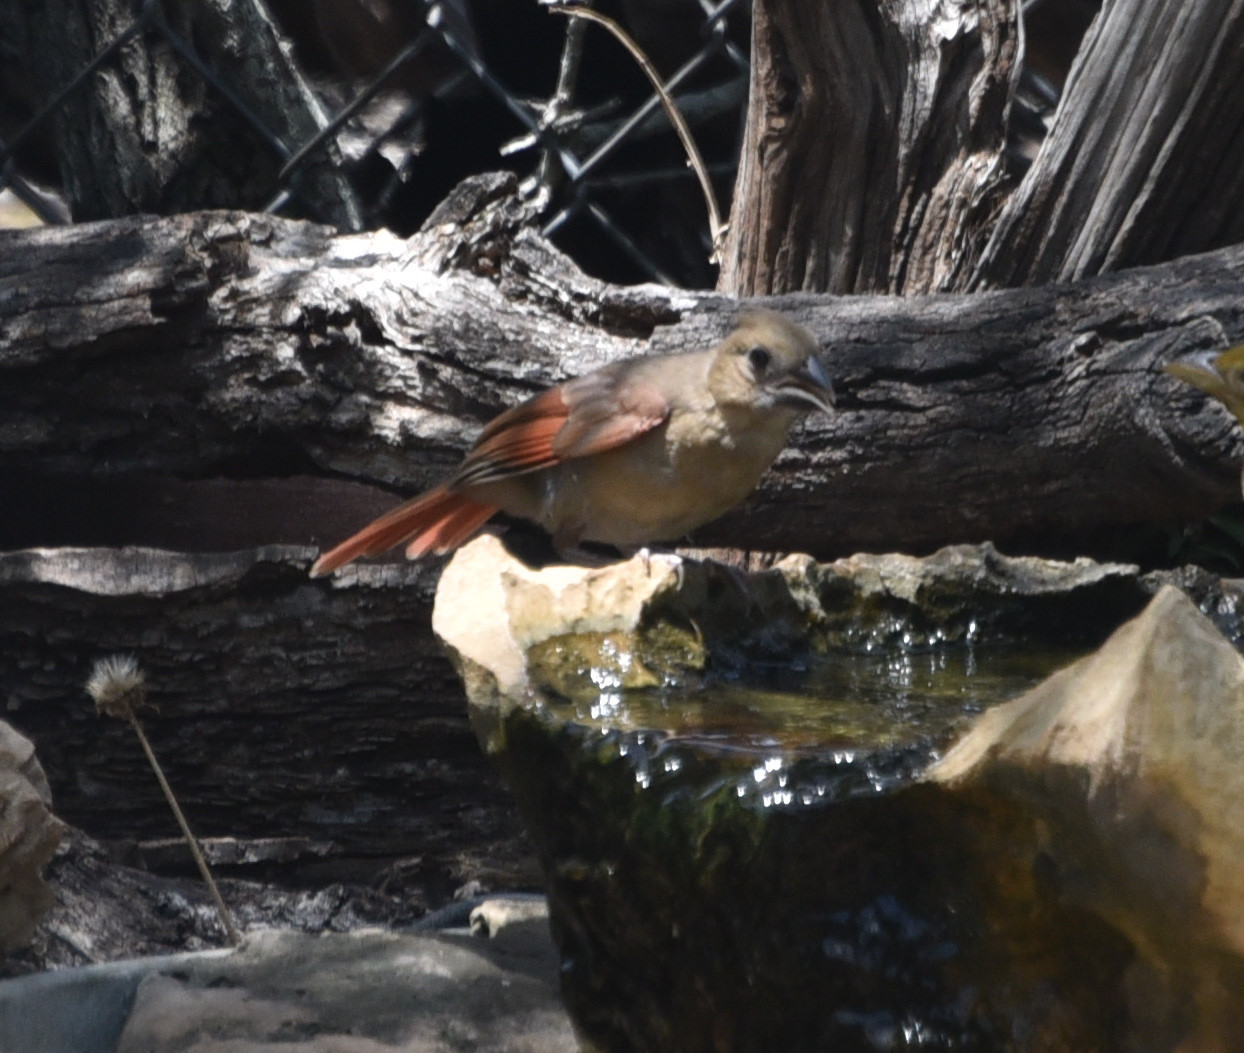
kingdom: Animalia
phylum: Chordata
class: Aves
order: Passeriformes
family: Cardinalidae
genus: Cardinalis
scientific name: Cardinalis cardinalis
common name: Northern cardinal
